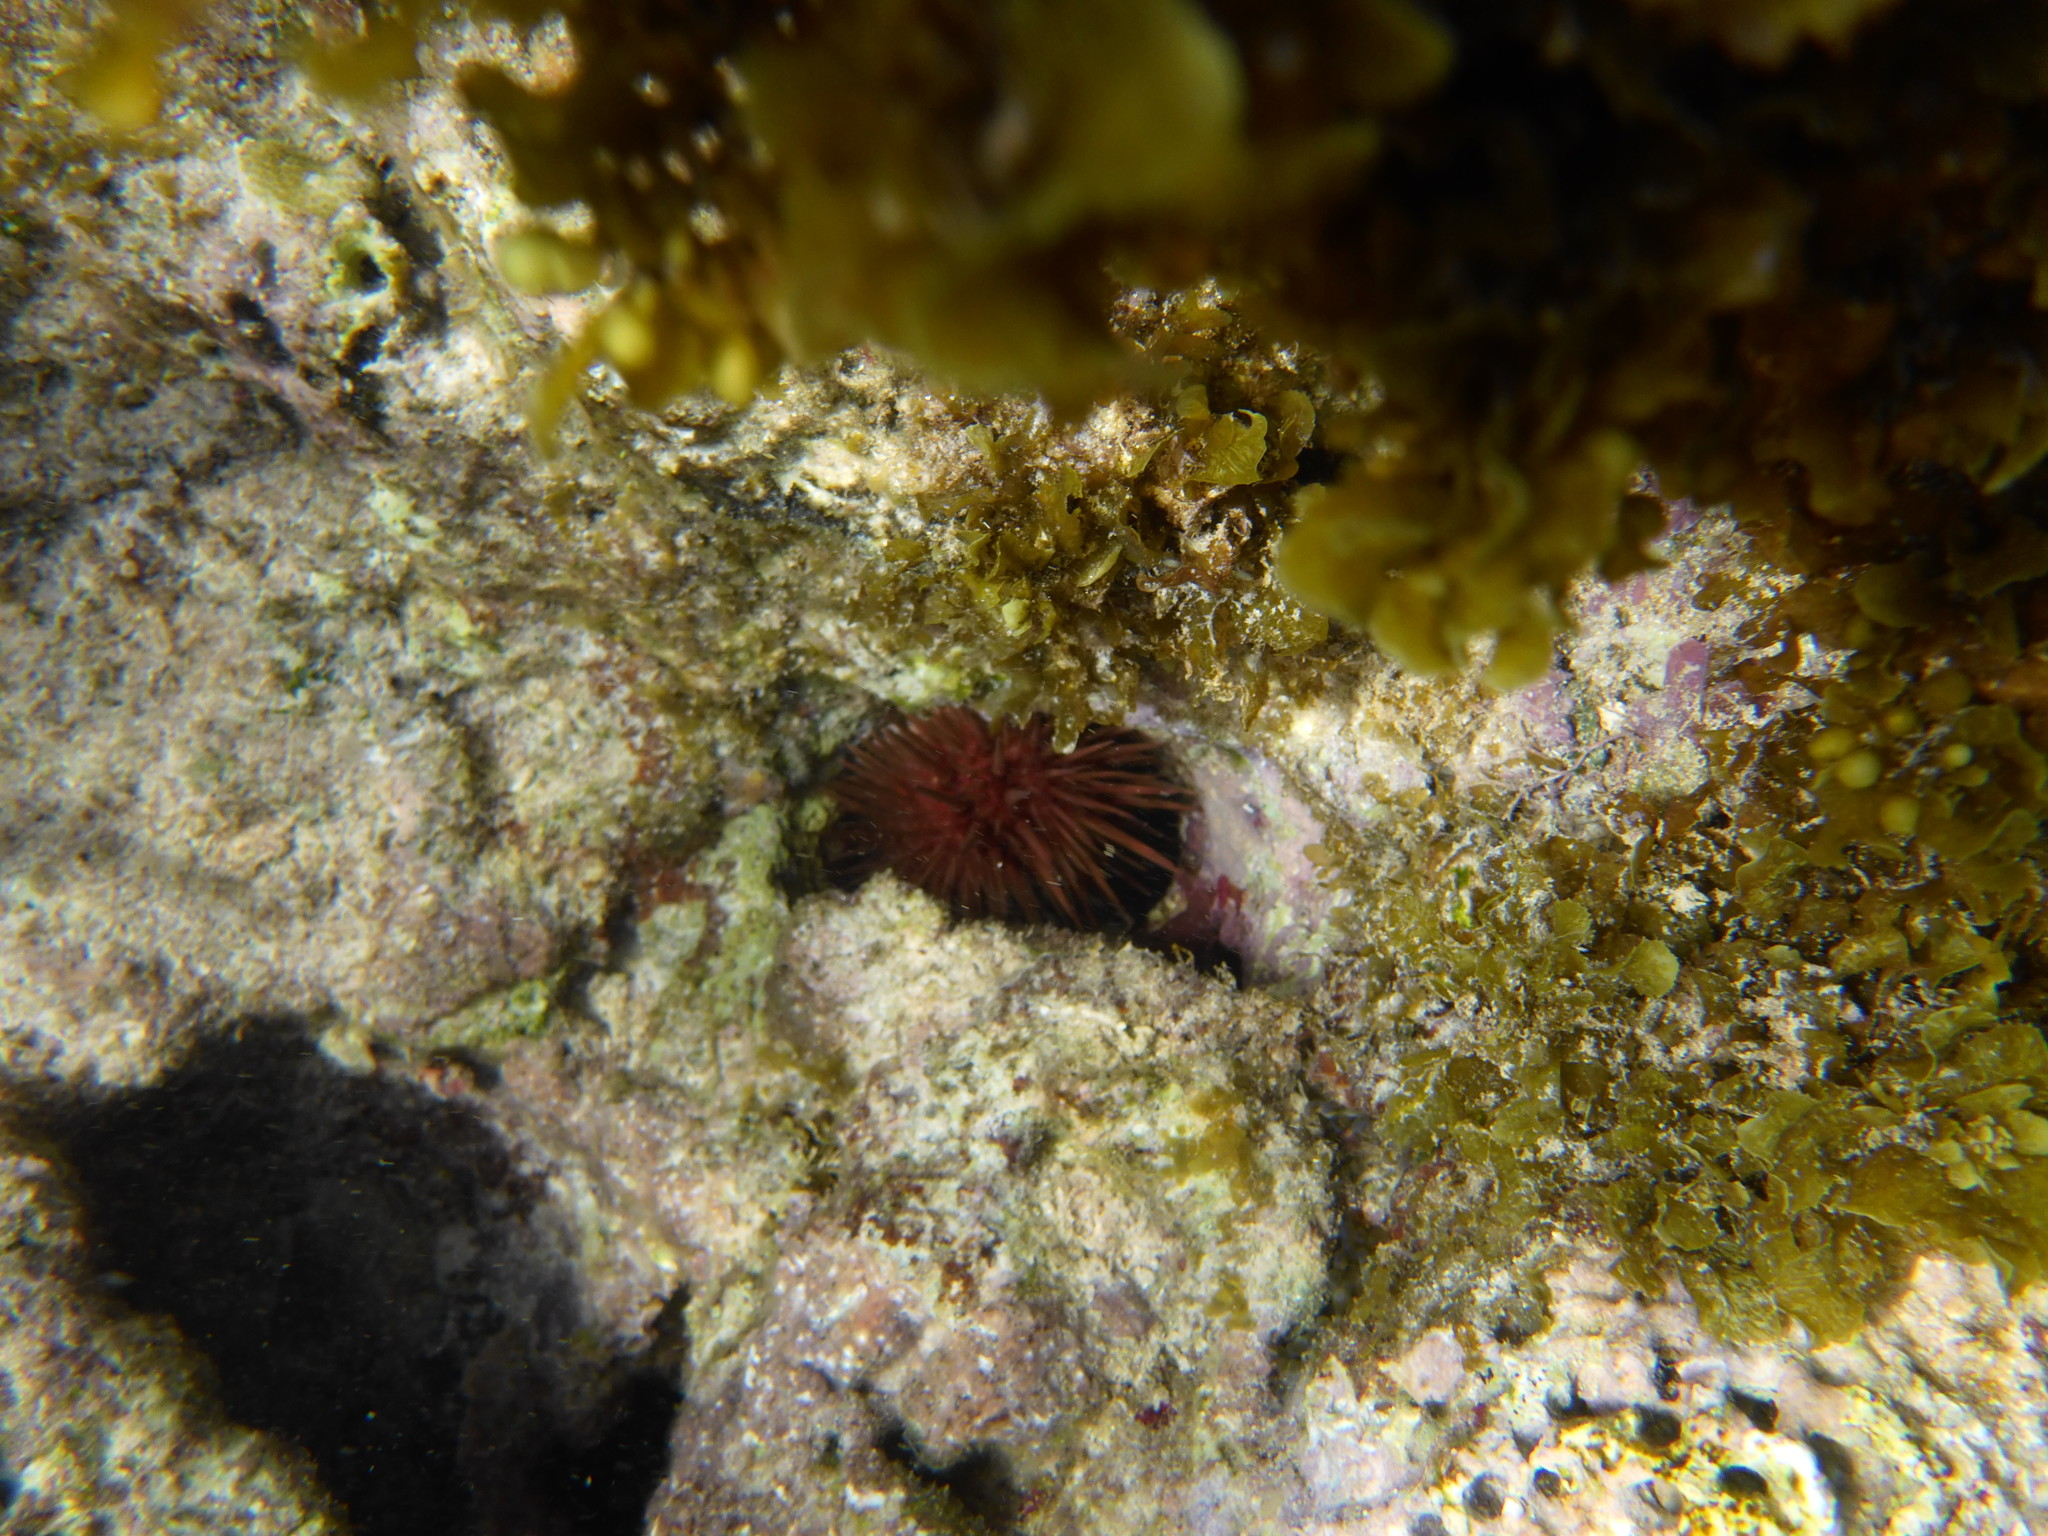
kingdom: Animalia
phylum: Echinodermata
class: Echinoidea
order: Camarodonta
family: Echinometridae
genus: Echinometra
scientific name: Echinometra lucunter
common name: Rock urchin
